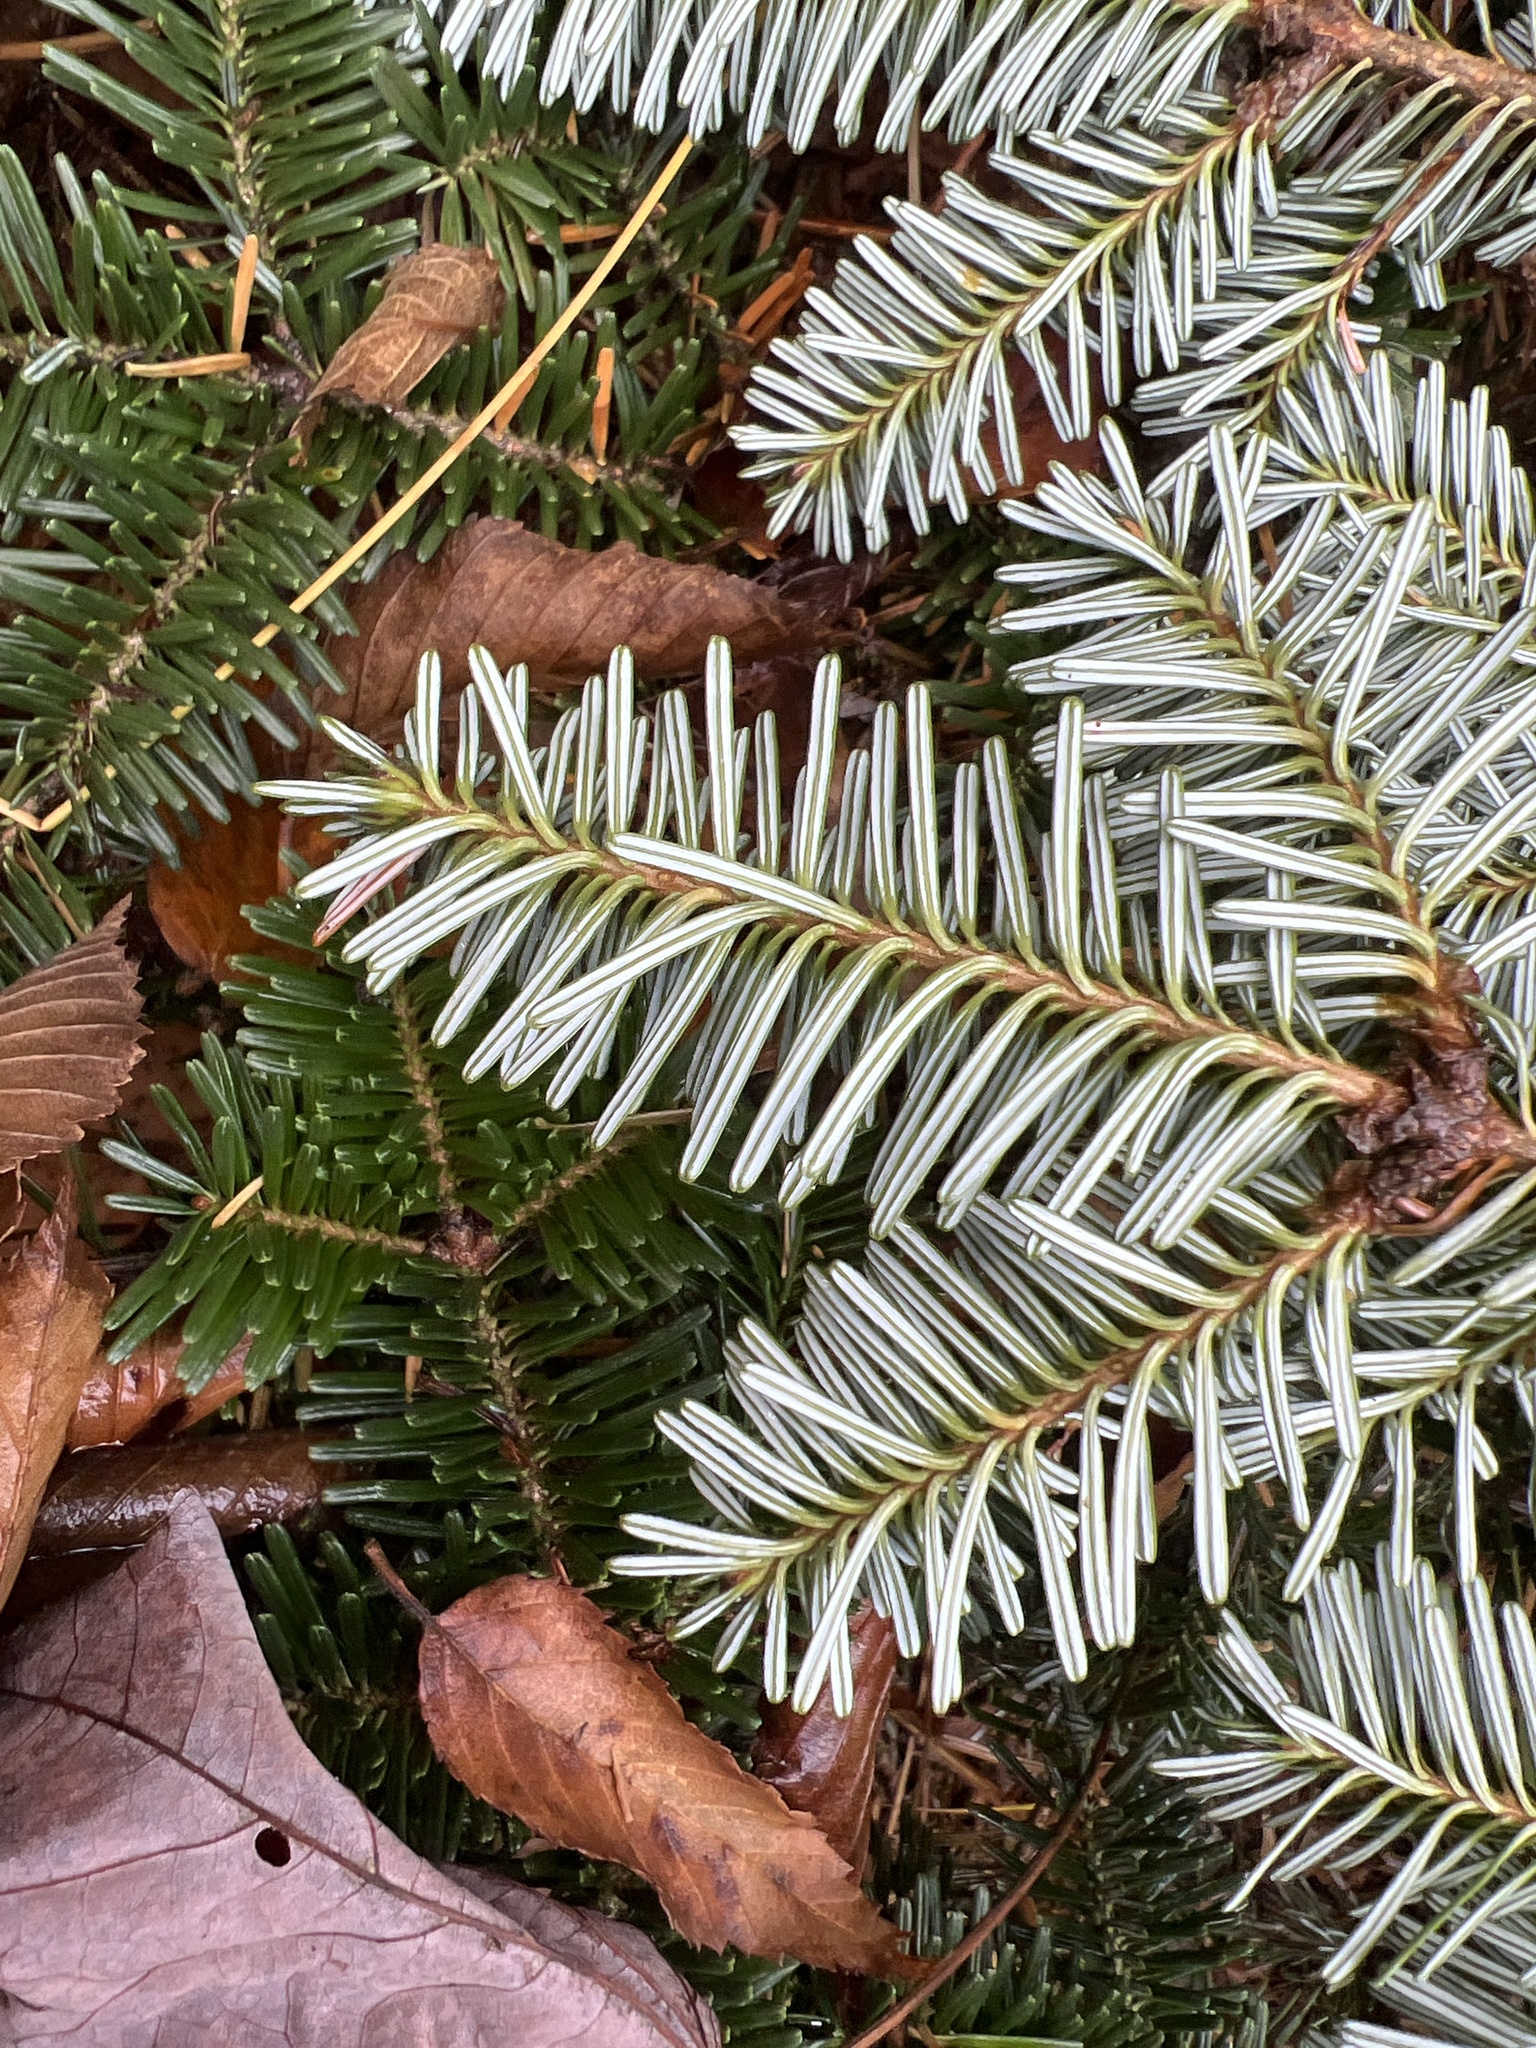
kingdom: Plantae
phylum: Tracheophyta
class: Pinopsida
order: Pinales
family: Pinaceae
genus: Abies
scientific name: Abies fraseri
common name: Fraser fir
